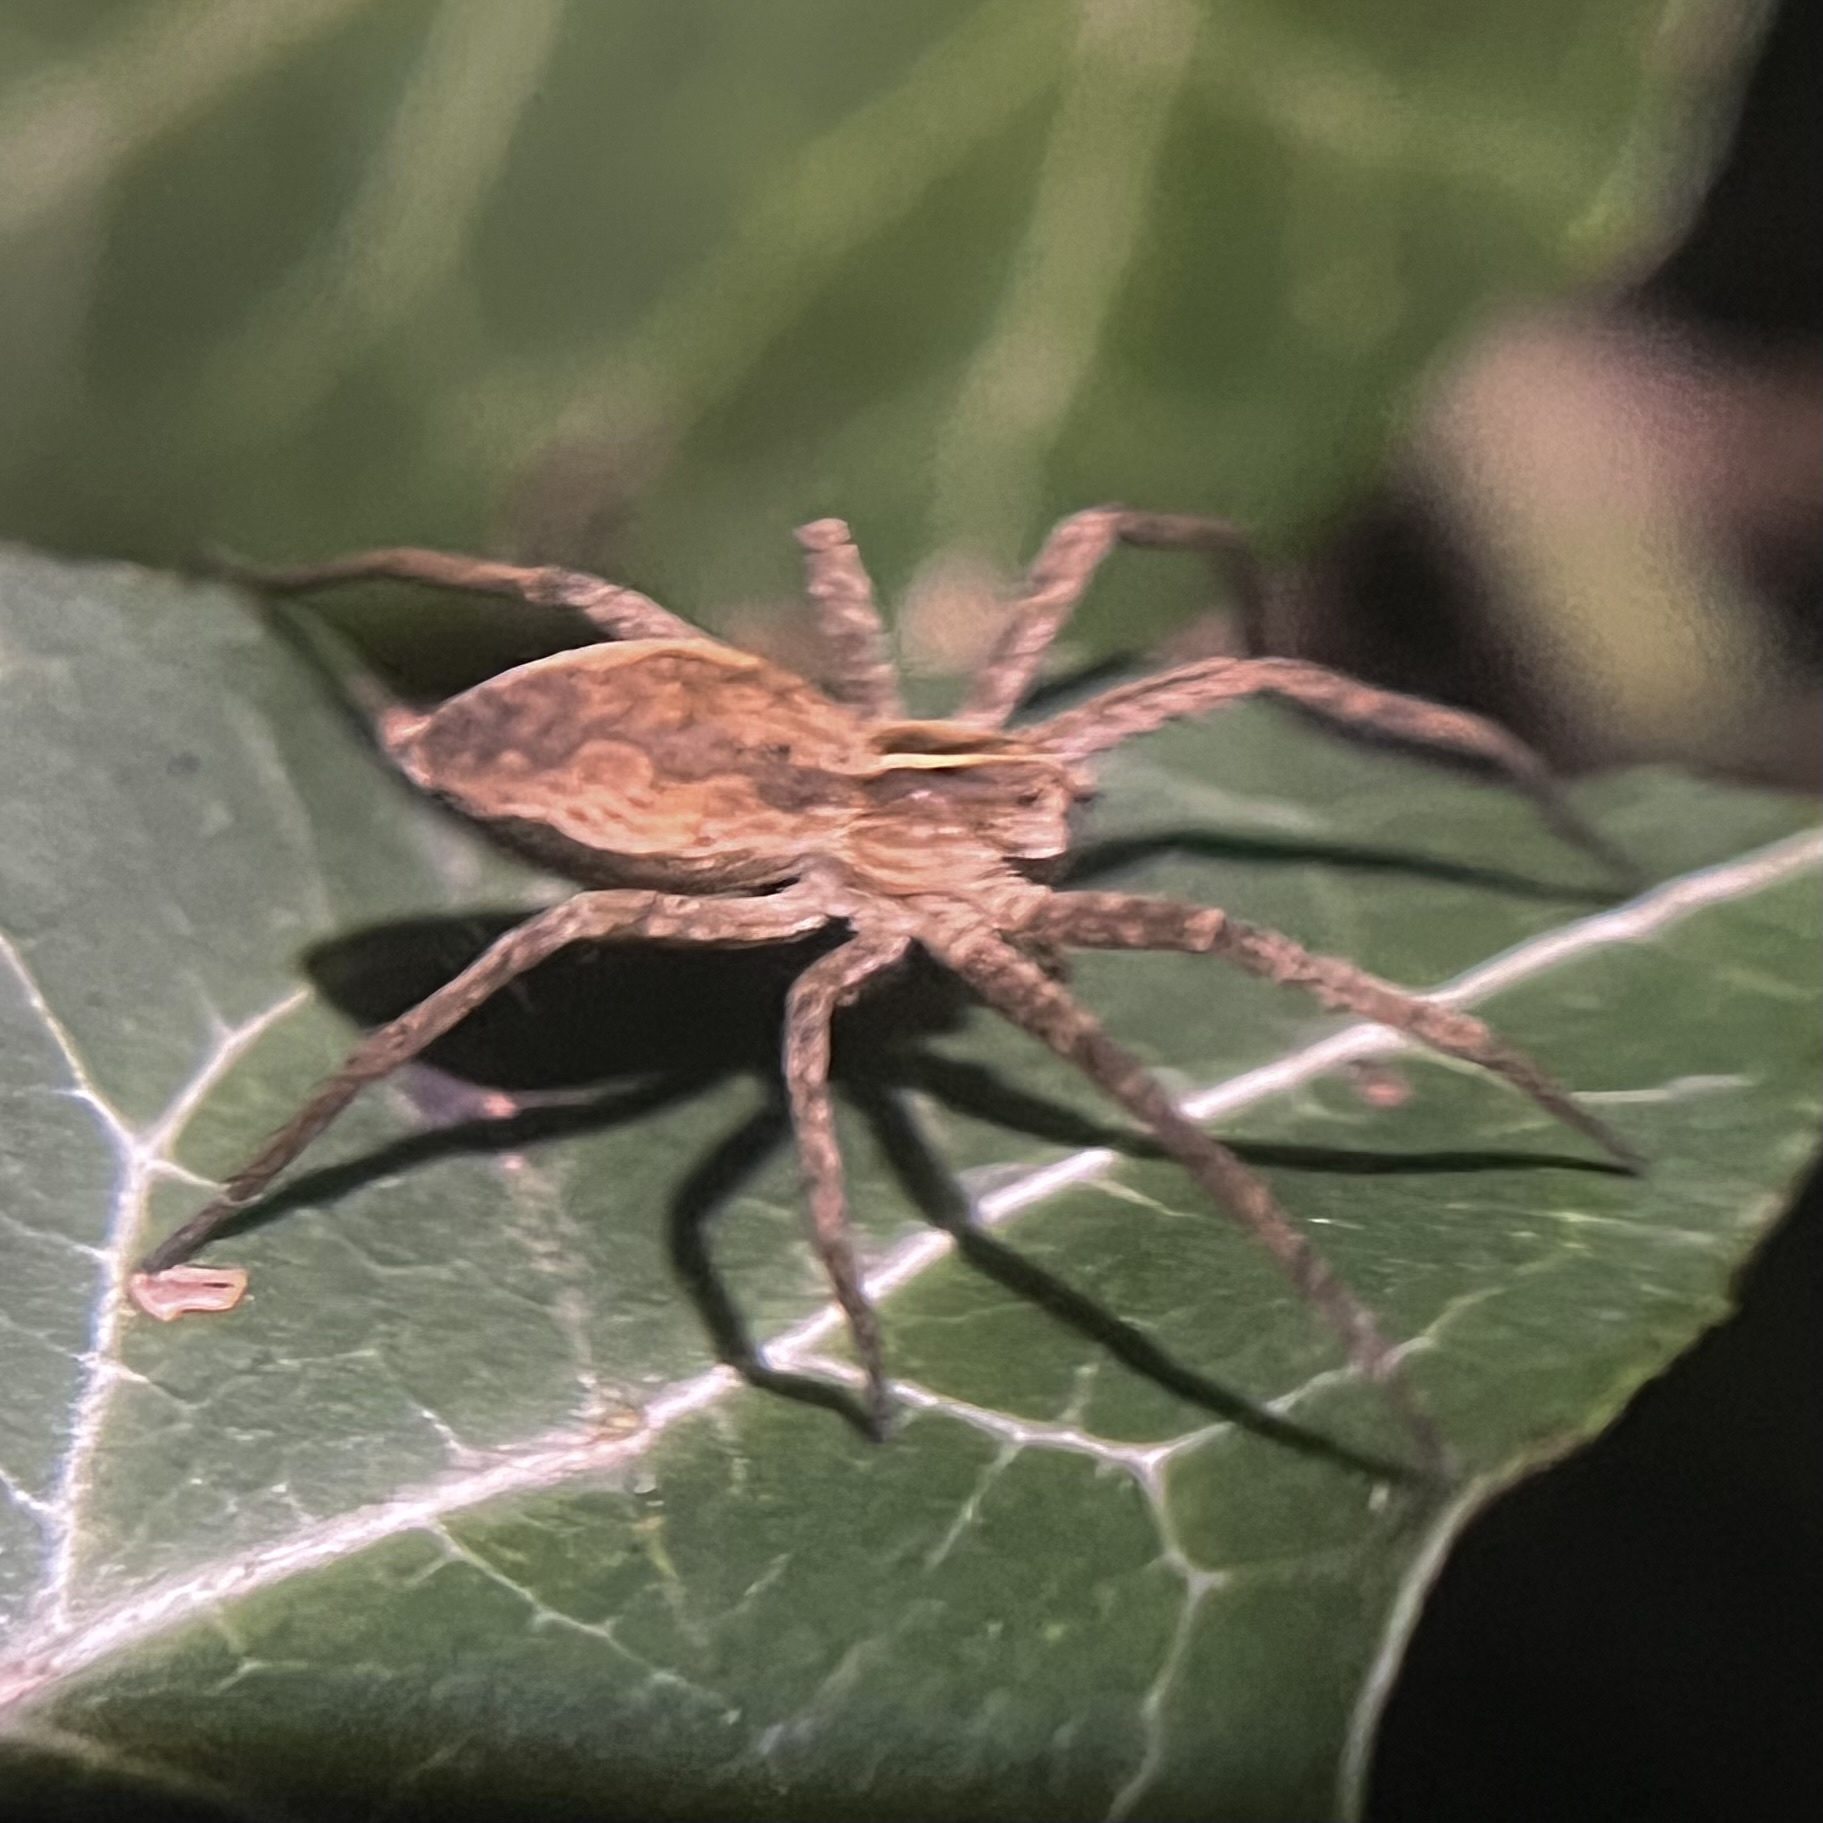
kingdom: Animalia
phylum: Arthropoda
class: Arachnida
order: Araneae
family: Pisauridae
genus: Pisaura
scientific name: Pisaura mirabilis
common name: Tent spider
